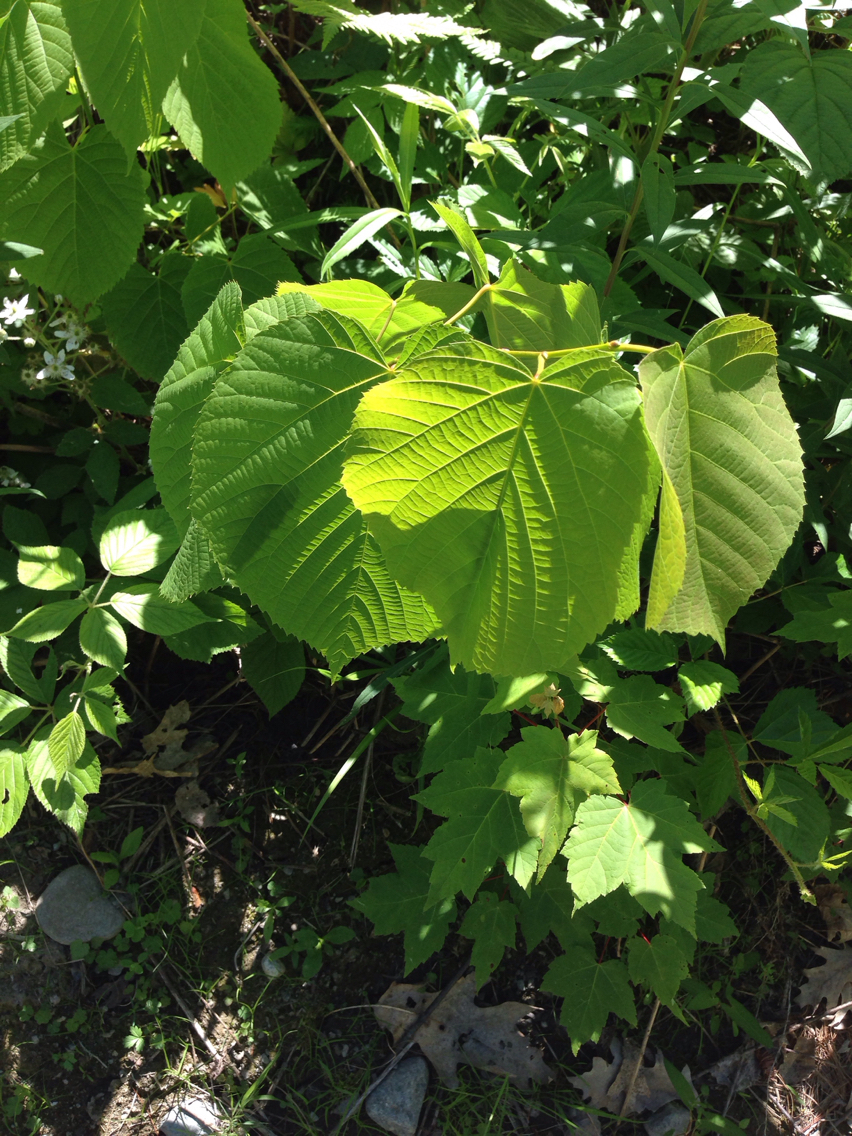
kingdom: Plantae
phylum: Tracheophyta
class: Magnoliopsida
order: Malvales
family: Malvaceae
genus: Tilia
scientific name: Tilia americana
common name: Basswood
